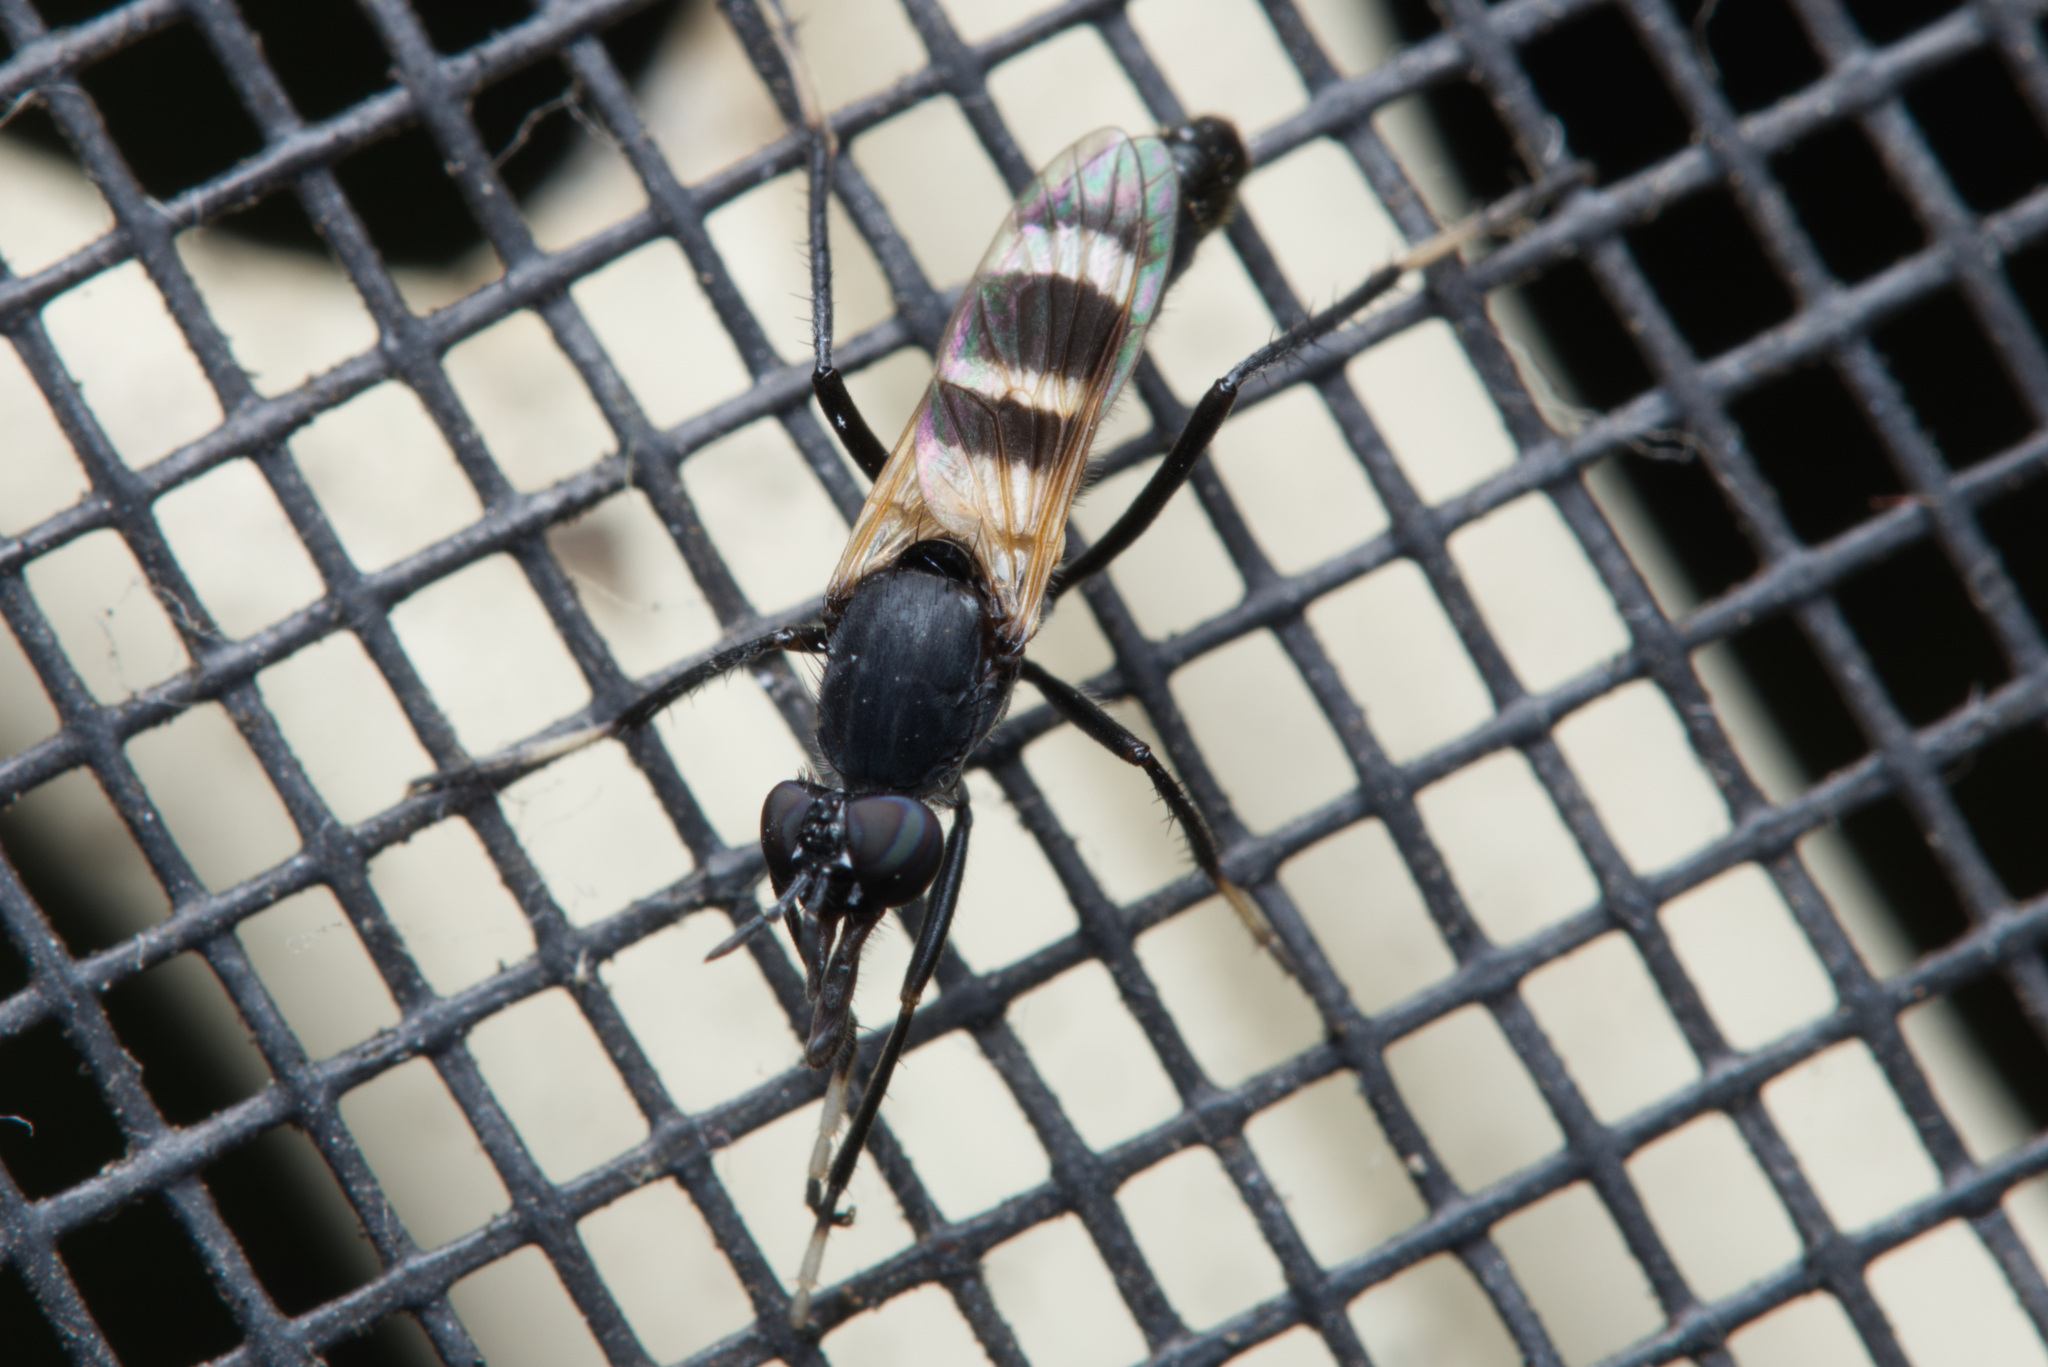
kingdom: Animalia
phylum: Arthropoda
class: Insecta
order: Diptera
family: Therevidae
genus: Acupalpa
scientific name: Acupalpa divisa
